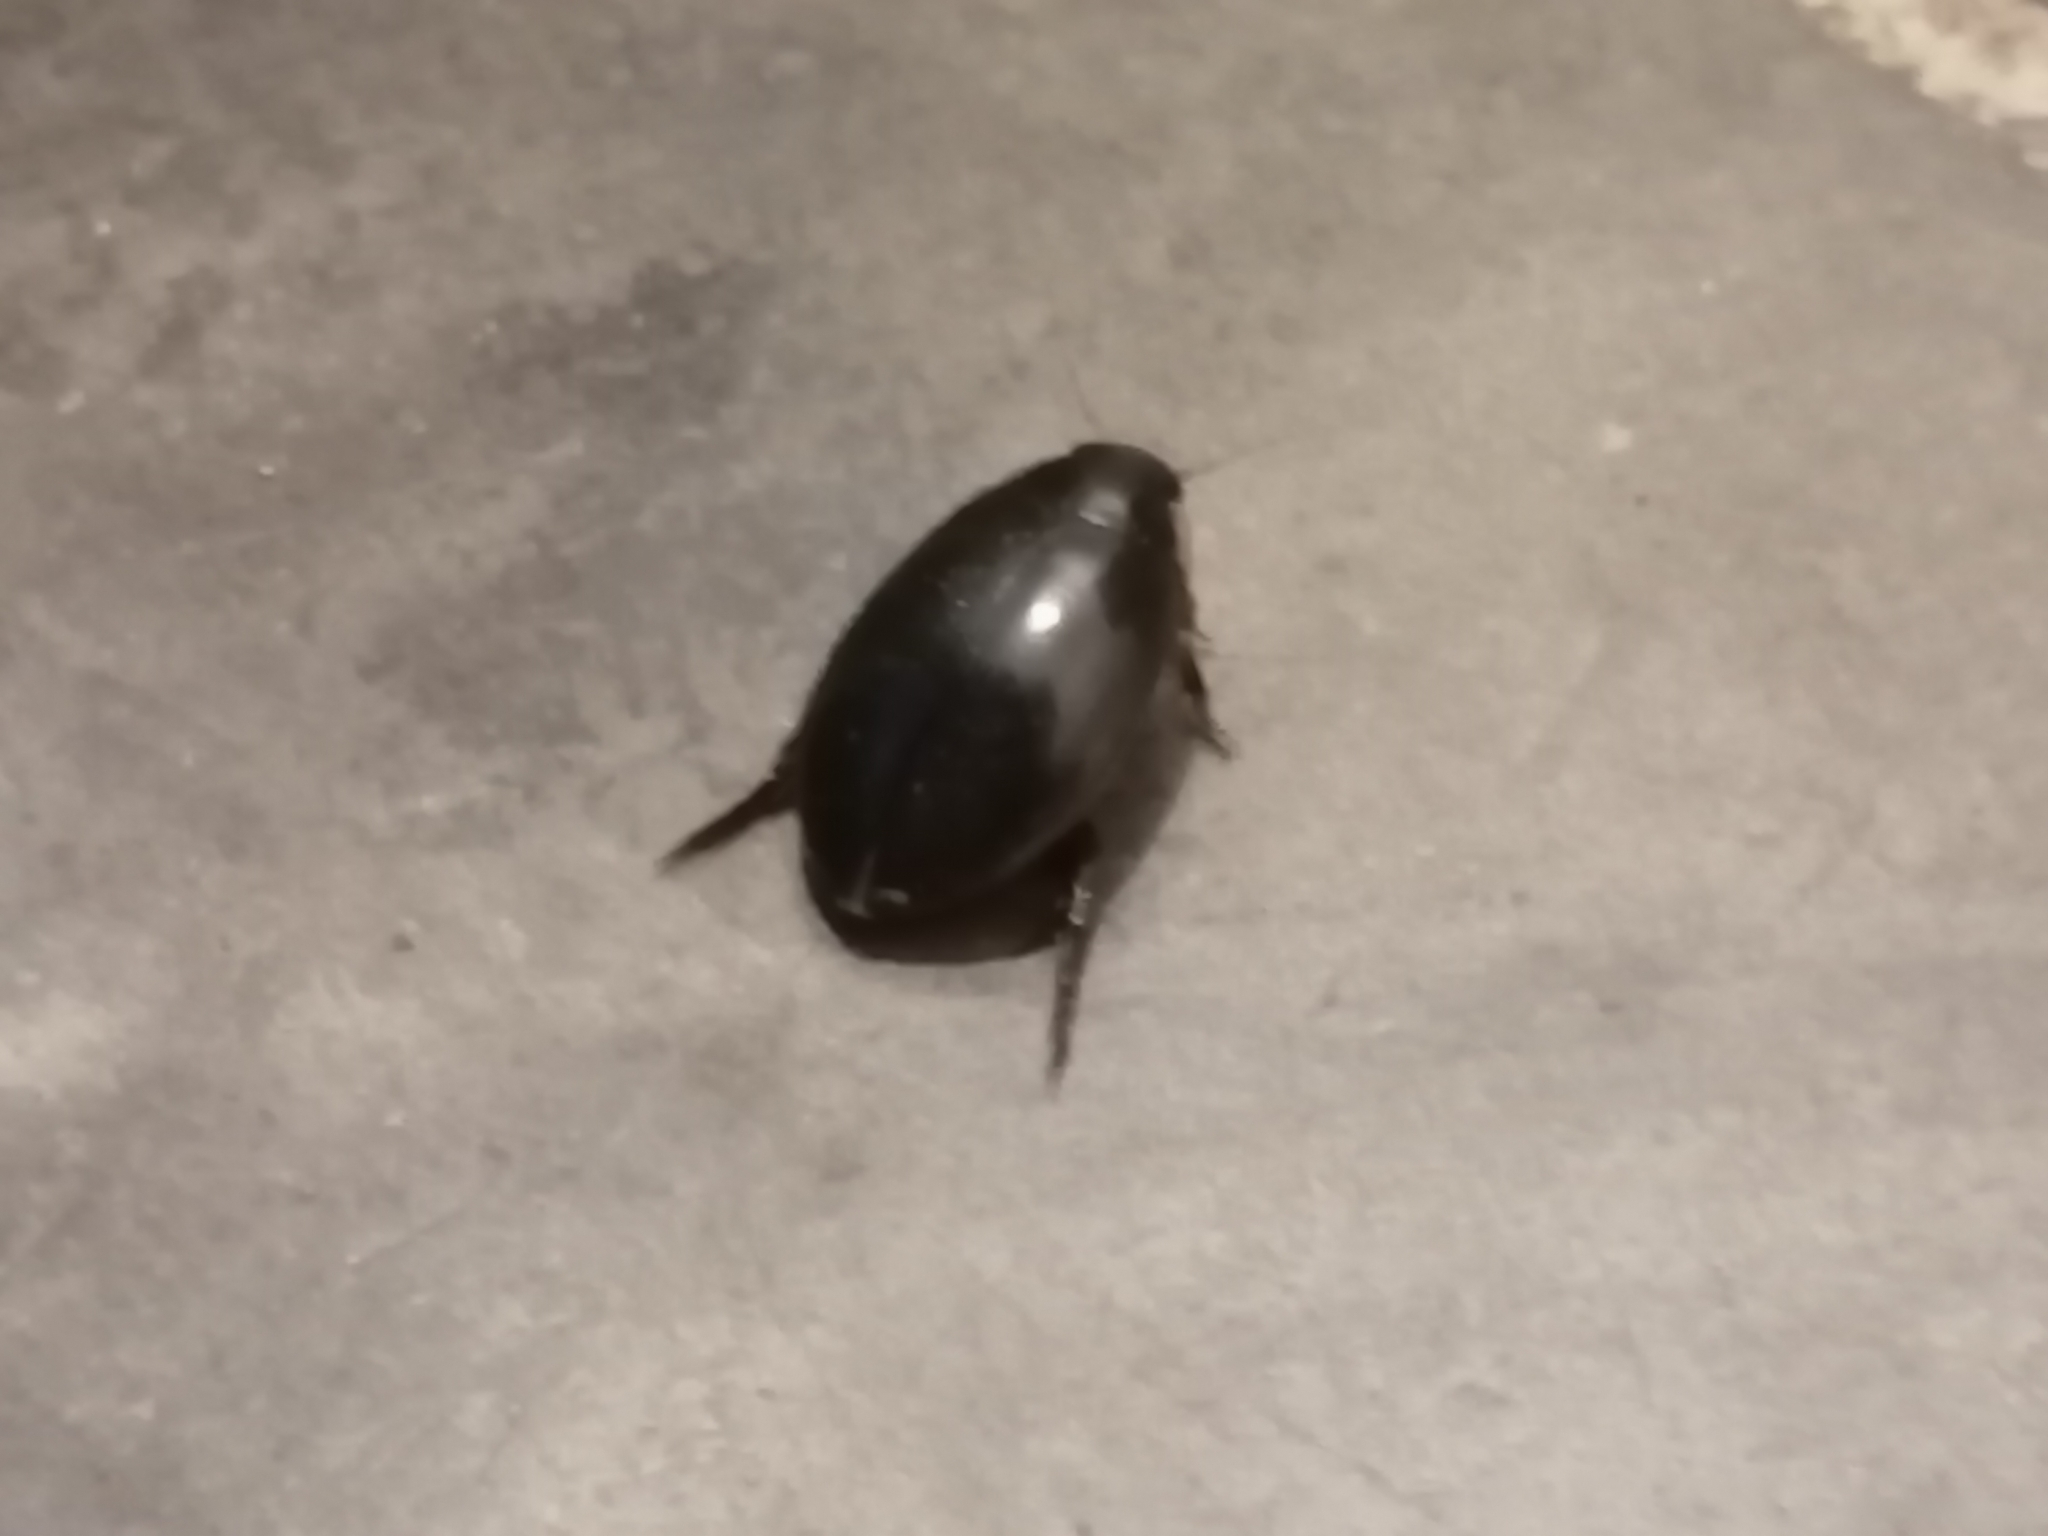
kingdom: Animalia
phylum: Arthropoda
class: Insecta
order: Coleoptera
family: Dytiscidae
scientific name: Dytiscidae
